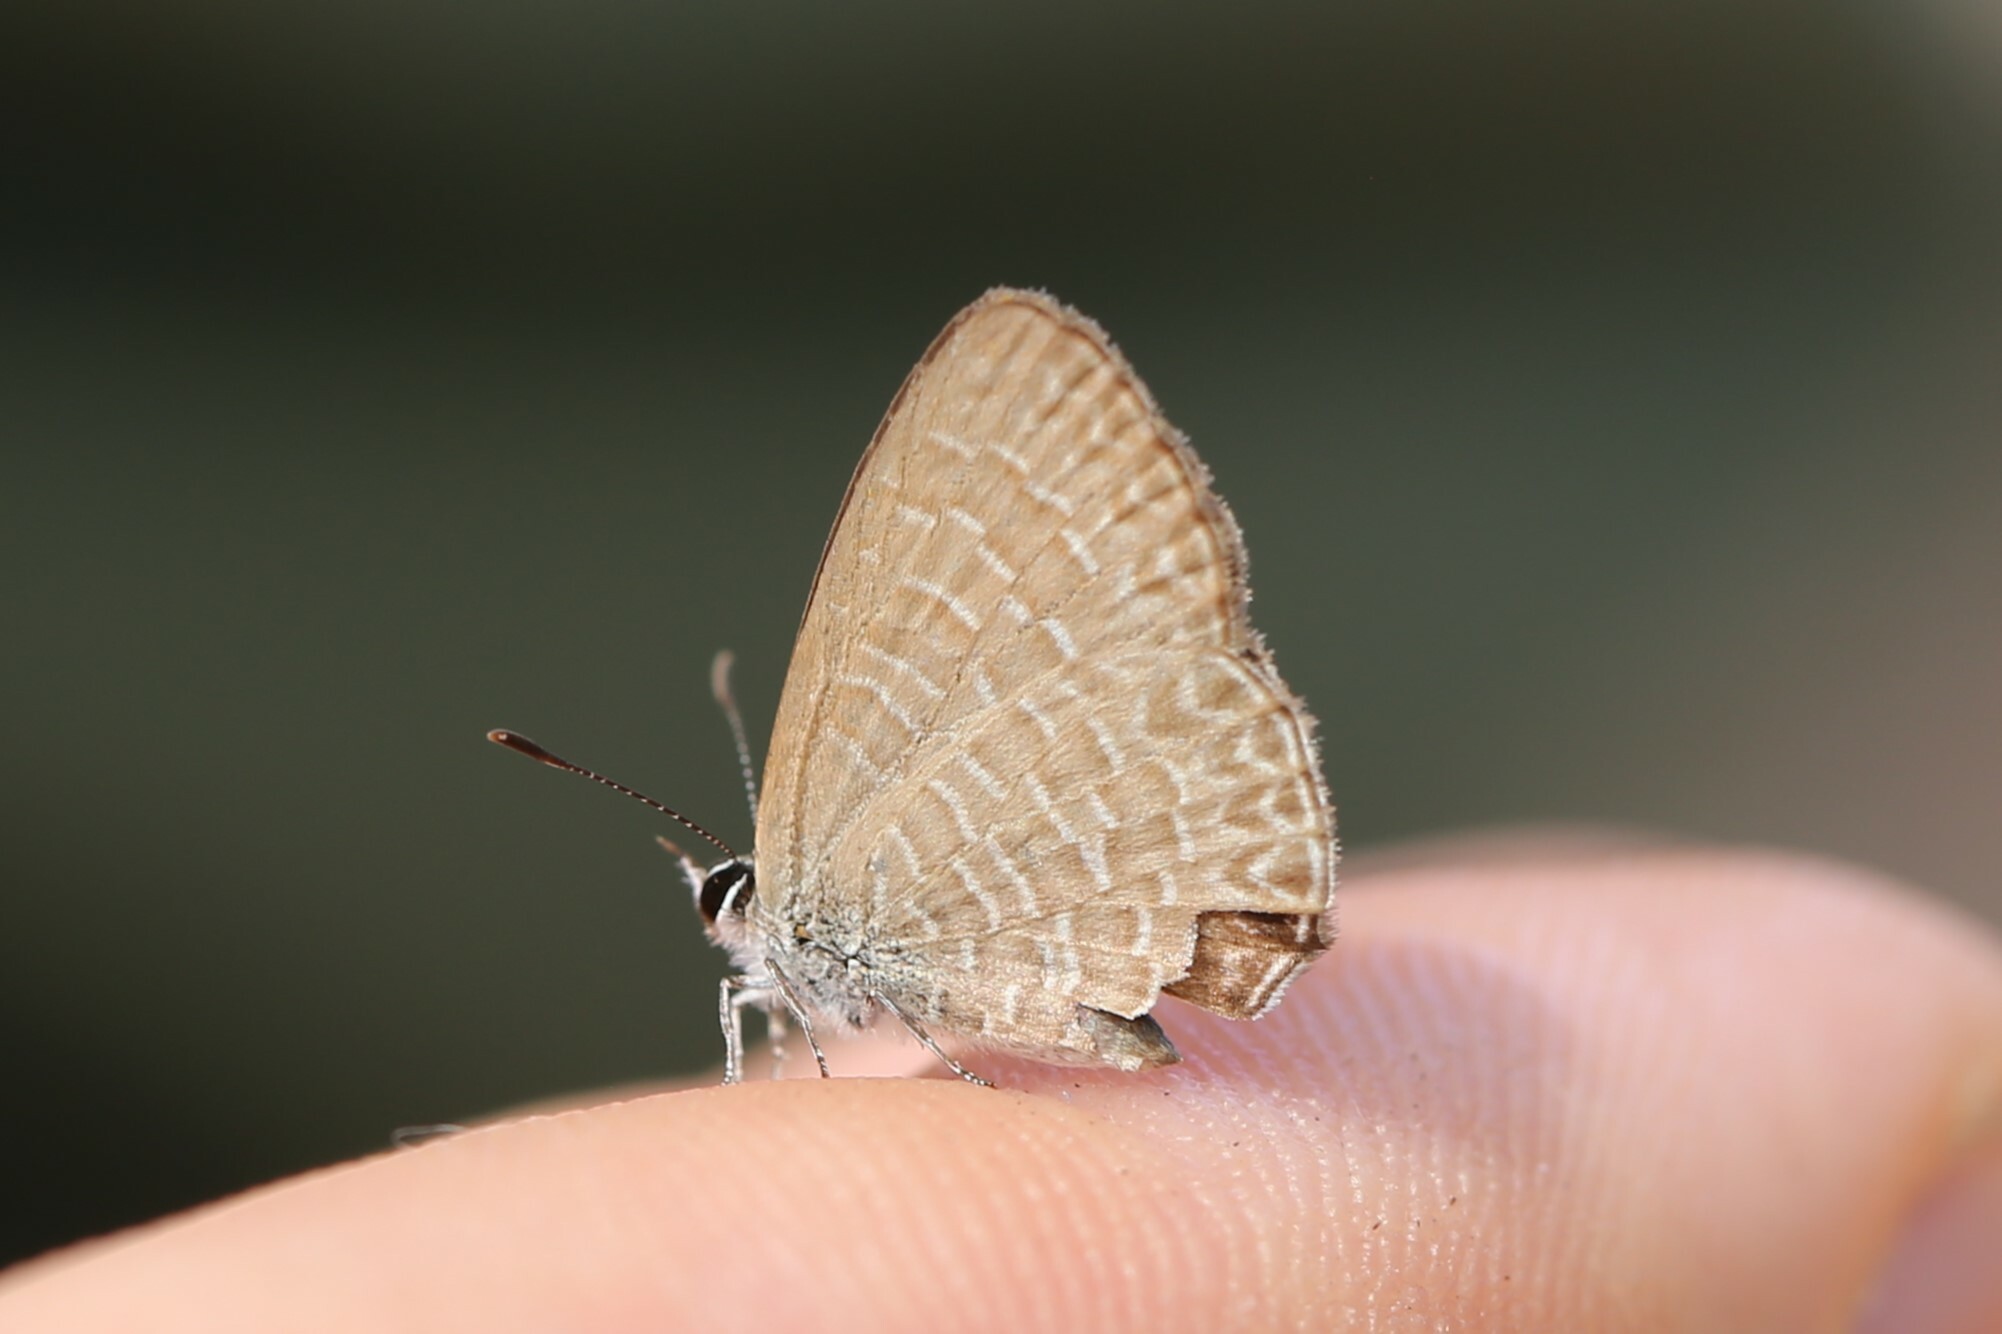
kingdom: Animalia
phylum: Arthropoda
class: Insecta
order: Lepidoptera
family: Lycaenidae
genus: Nacaduba
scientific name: Nacaduba berenice
